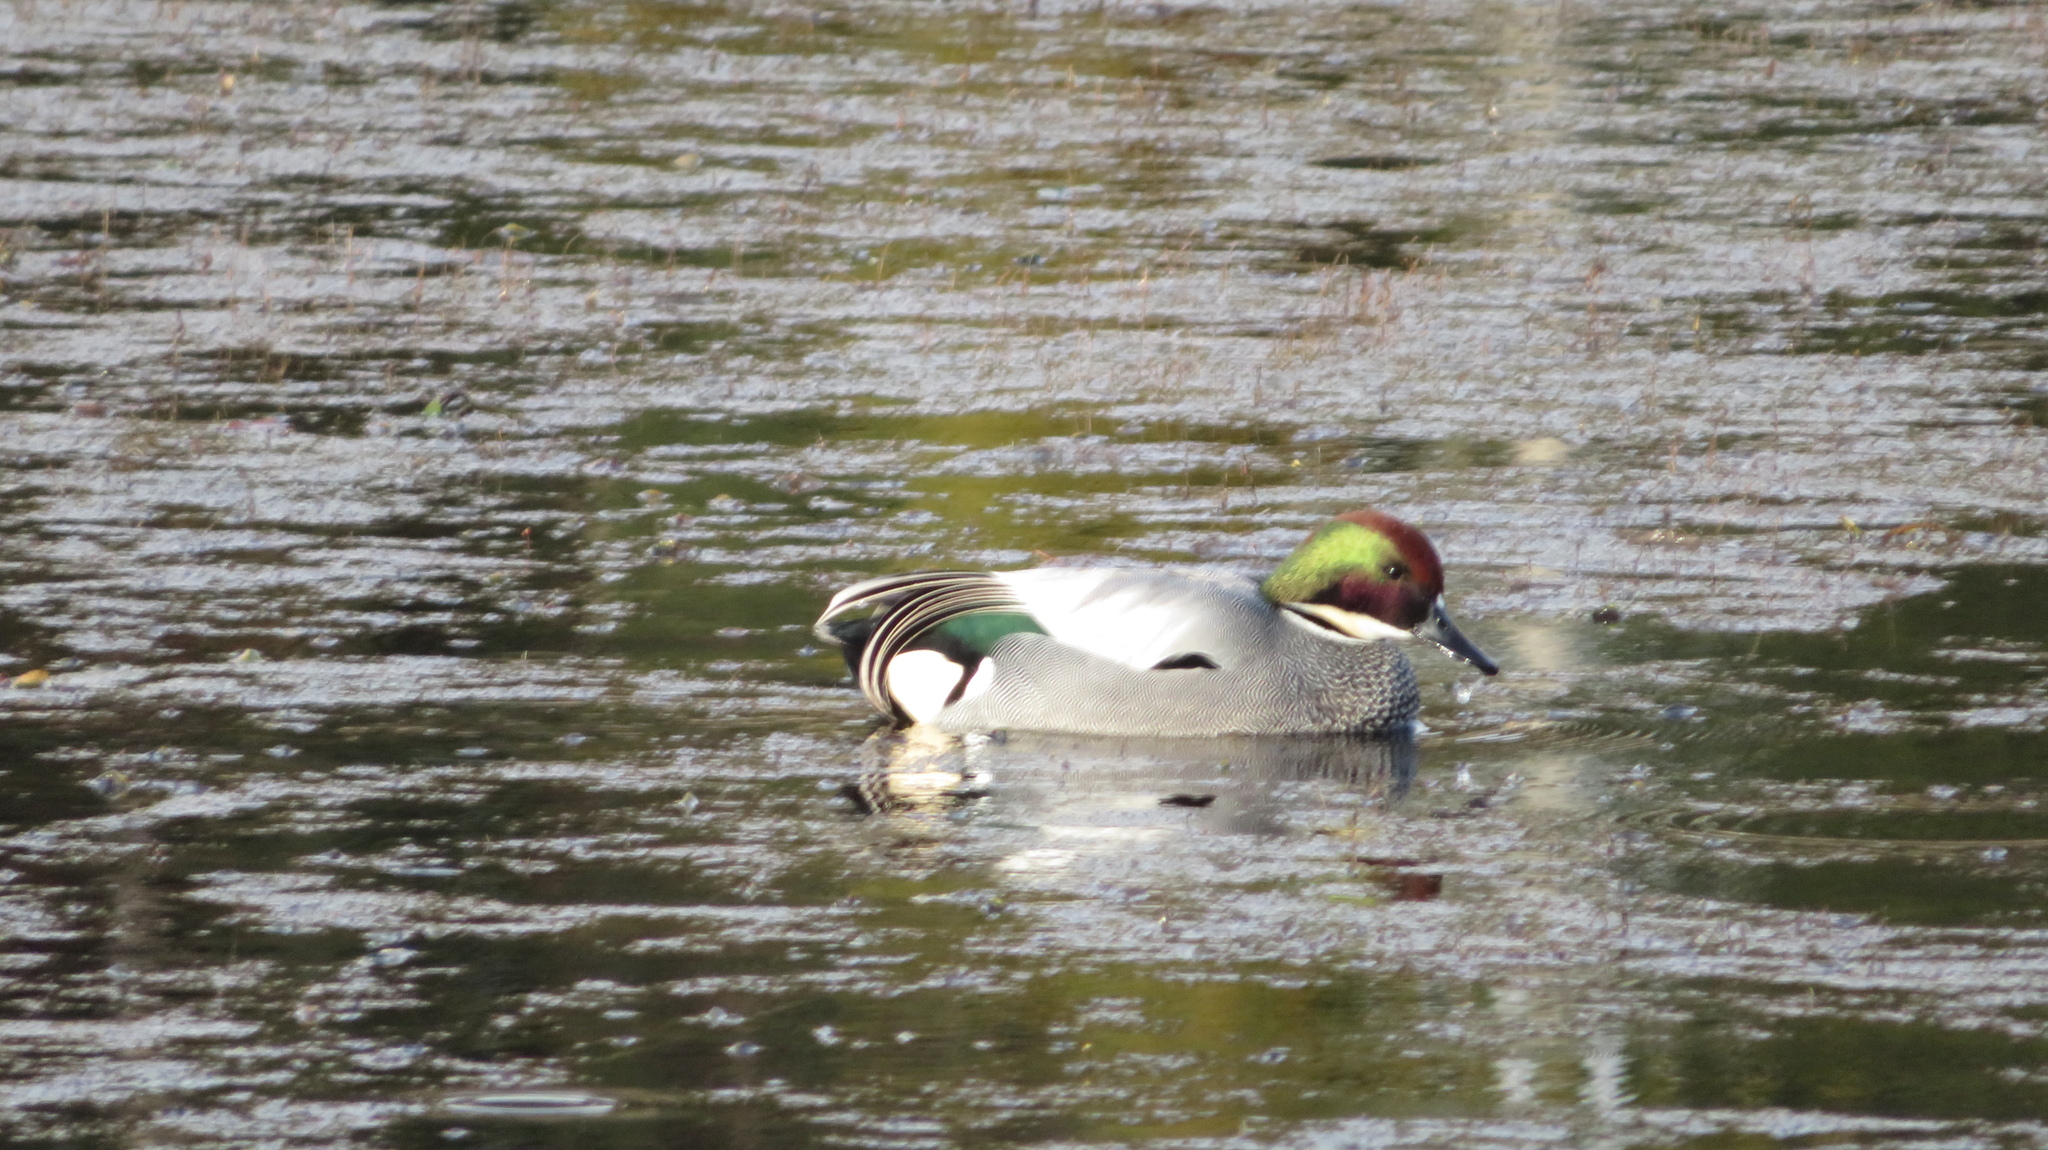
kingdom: Animalia
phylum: Chordata
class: Aves
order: Anseriformes
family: Anatidae
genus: Mareca
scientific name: Mareca falcata
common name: Falcated duck
